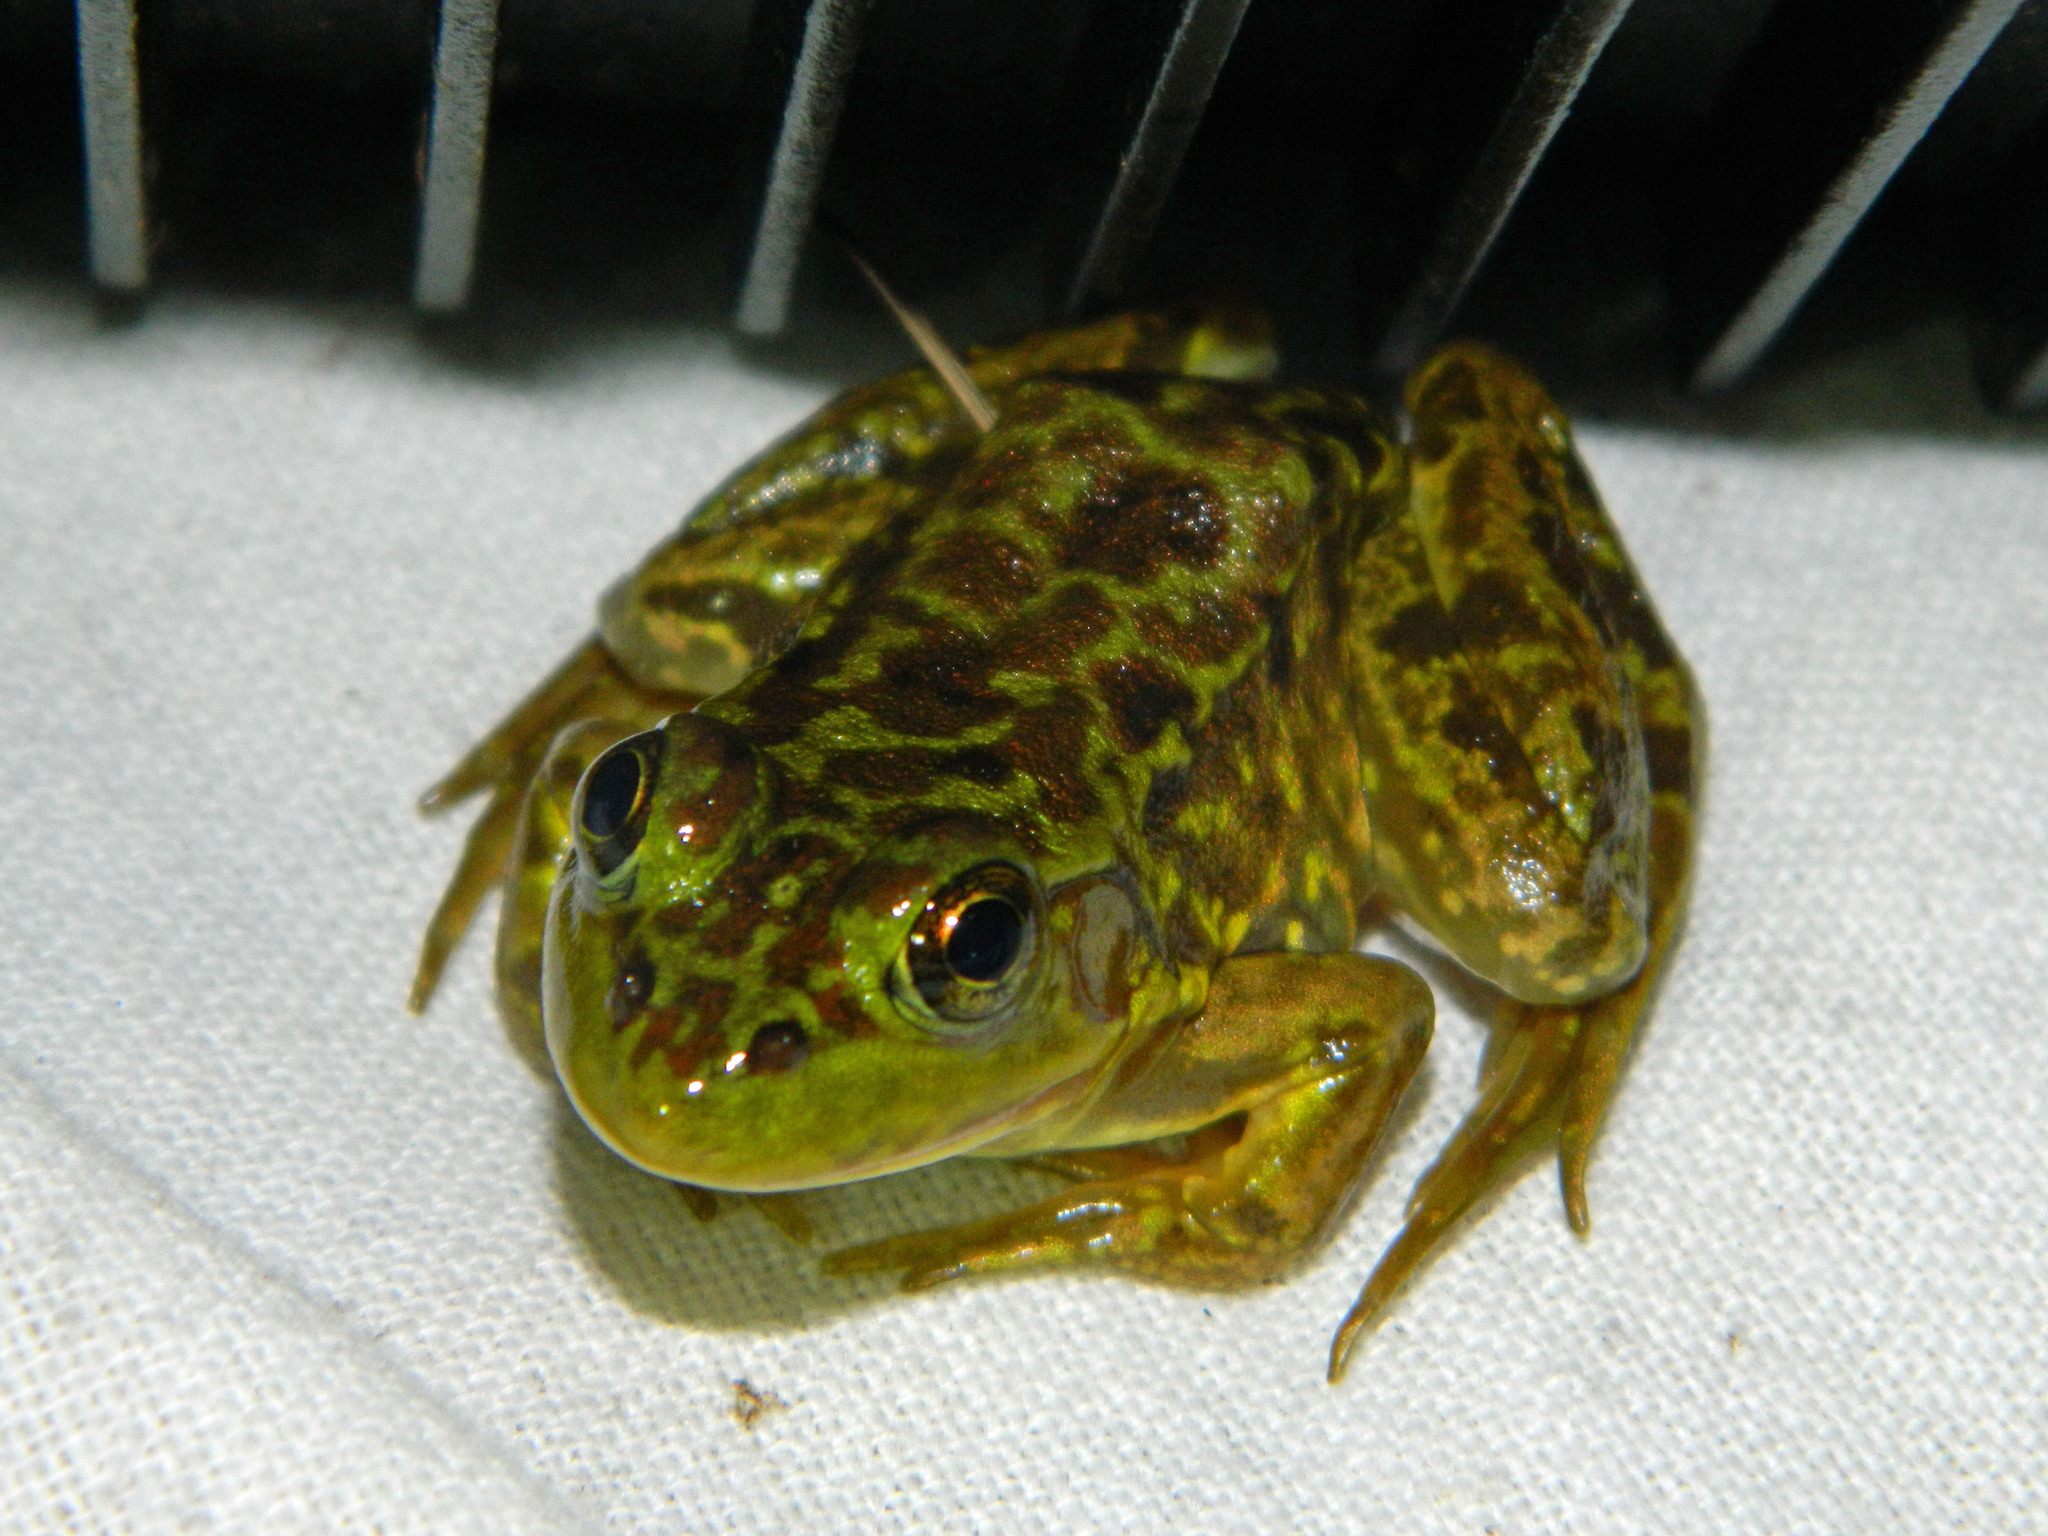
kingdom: Animalia
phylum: Chordata
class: Amphibia
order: Anura
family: Ranidae
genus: Lithobates
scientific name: Lithobates septentrionalis
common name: Mink frog
